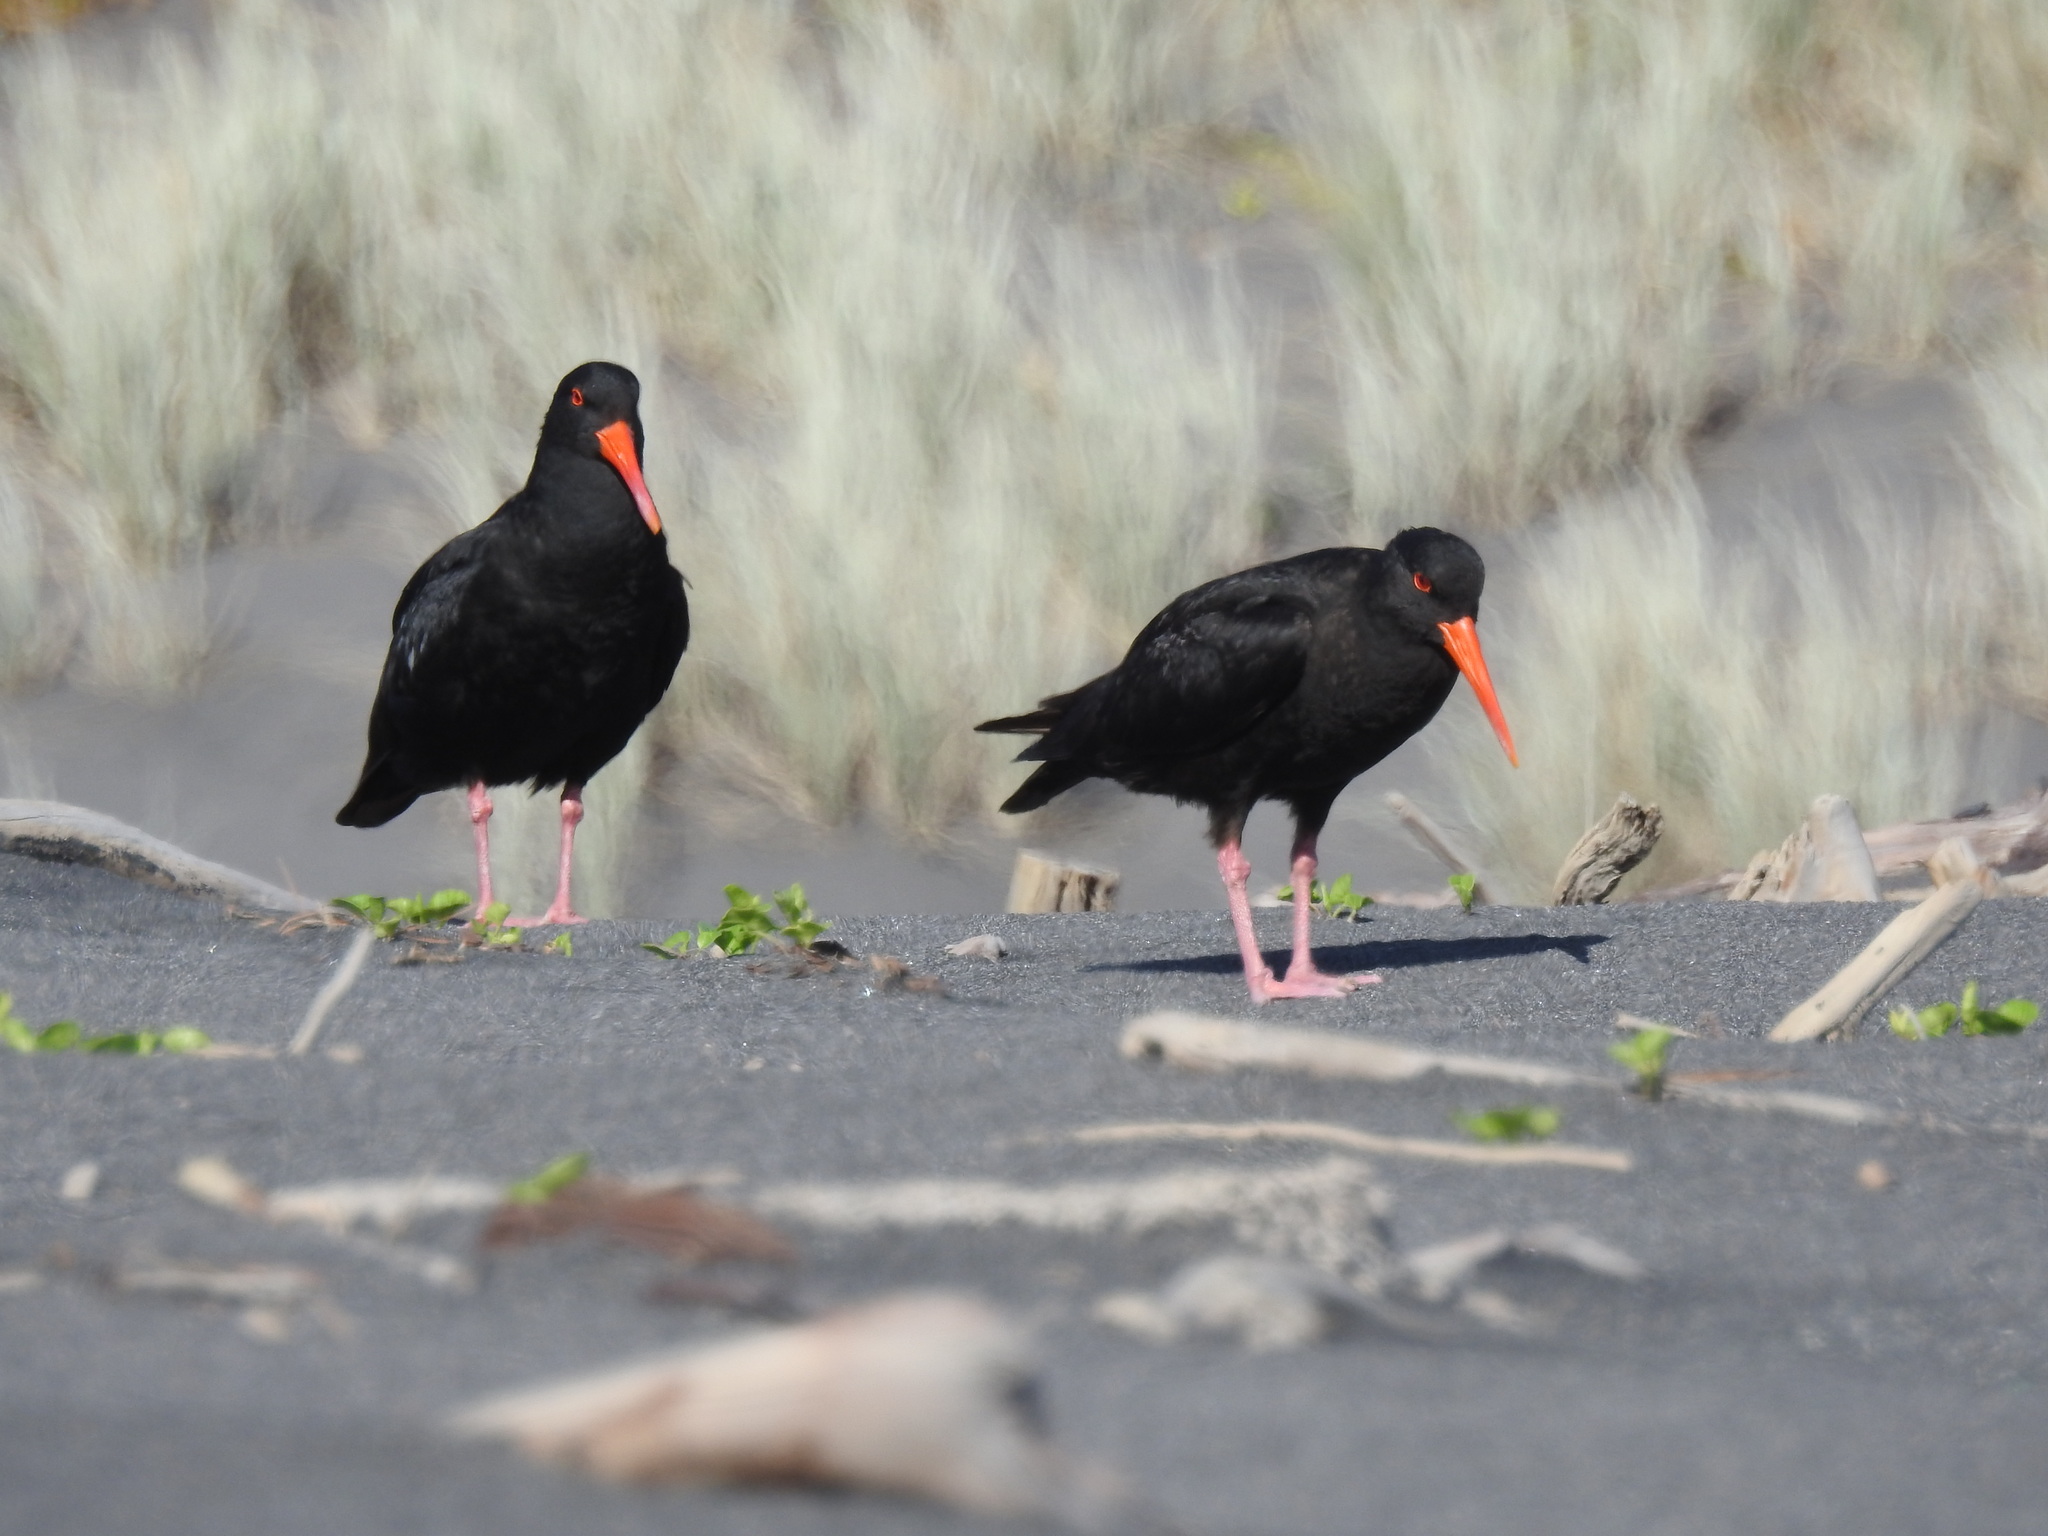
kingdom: Animalia
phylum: Chordata
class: Aves
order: Charadriiformes
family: Haematopodidae
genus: Haematopus
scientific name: Haematopus unicolor
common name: Variable oystercatcher
